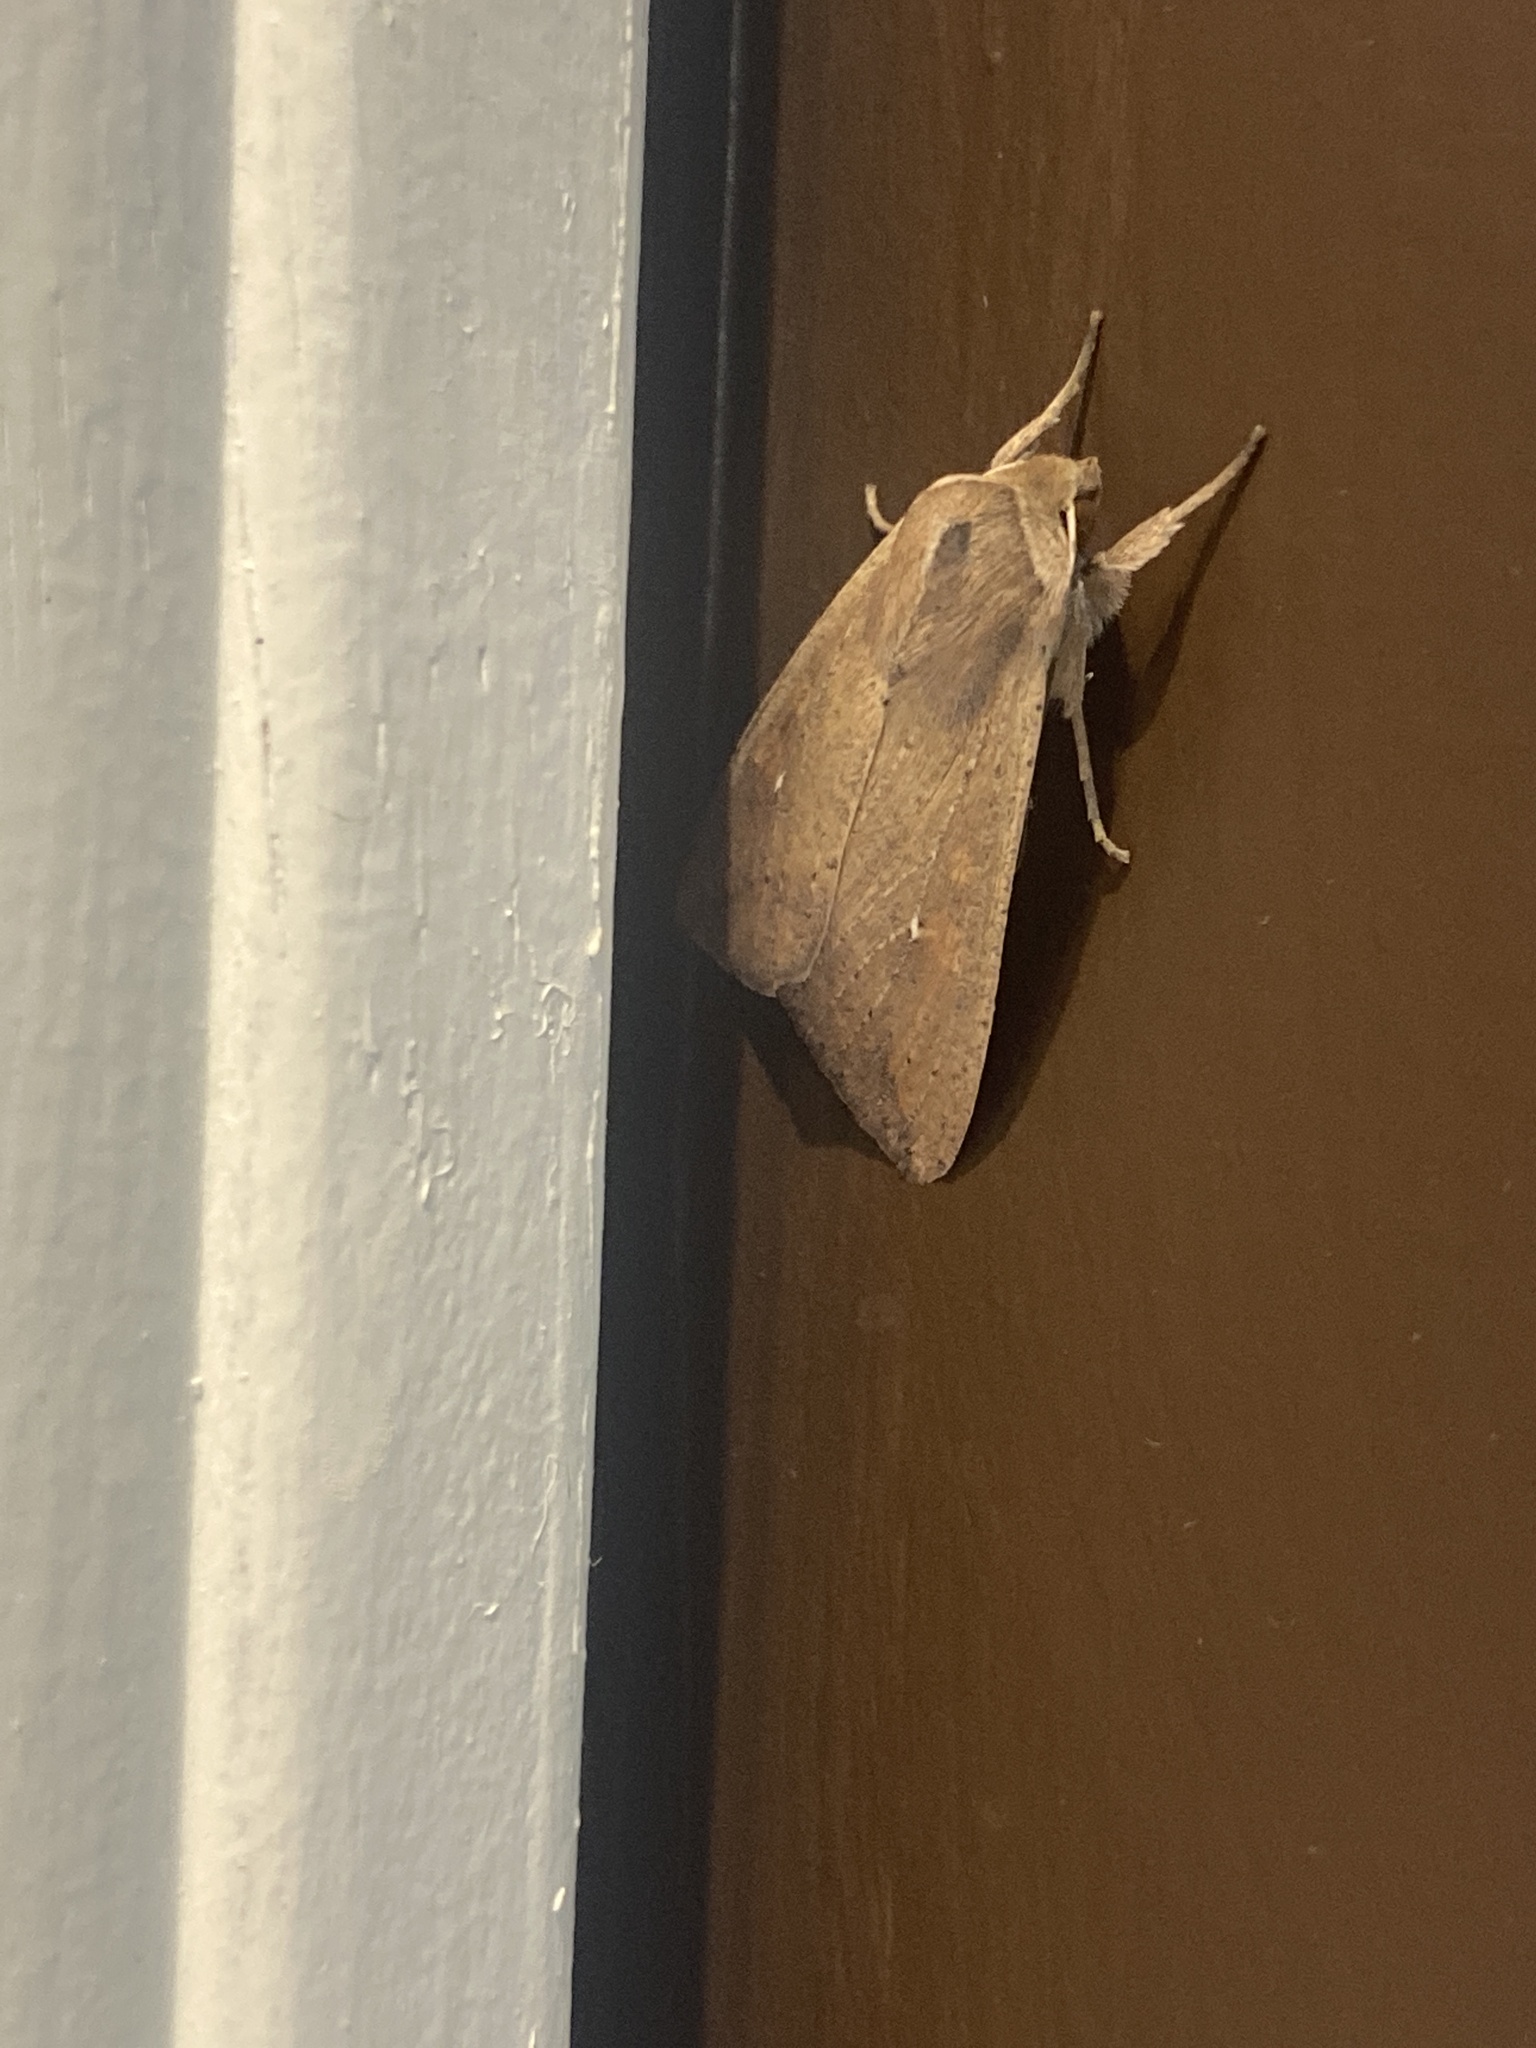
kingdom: Animalia
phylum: Arthropoda
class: Insecta
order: Lepidoptera
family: Noctuidae
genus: Mythimna
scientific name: Mythimna unipuncta
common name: White-speck
